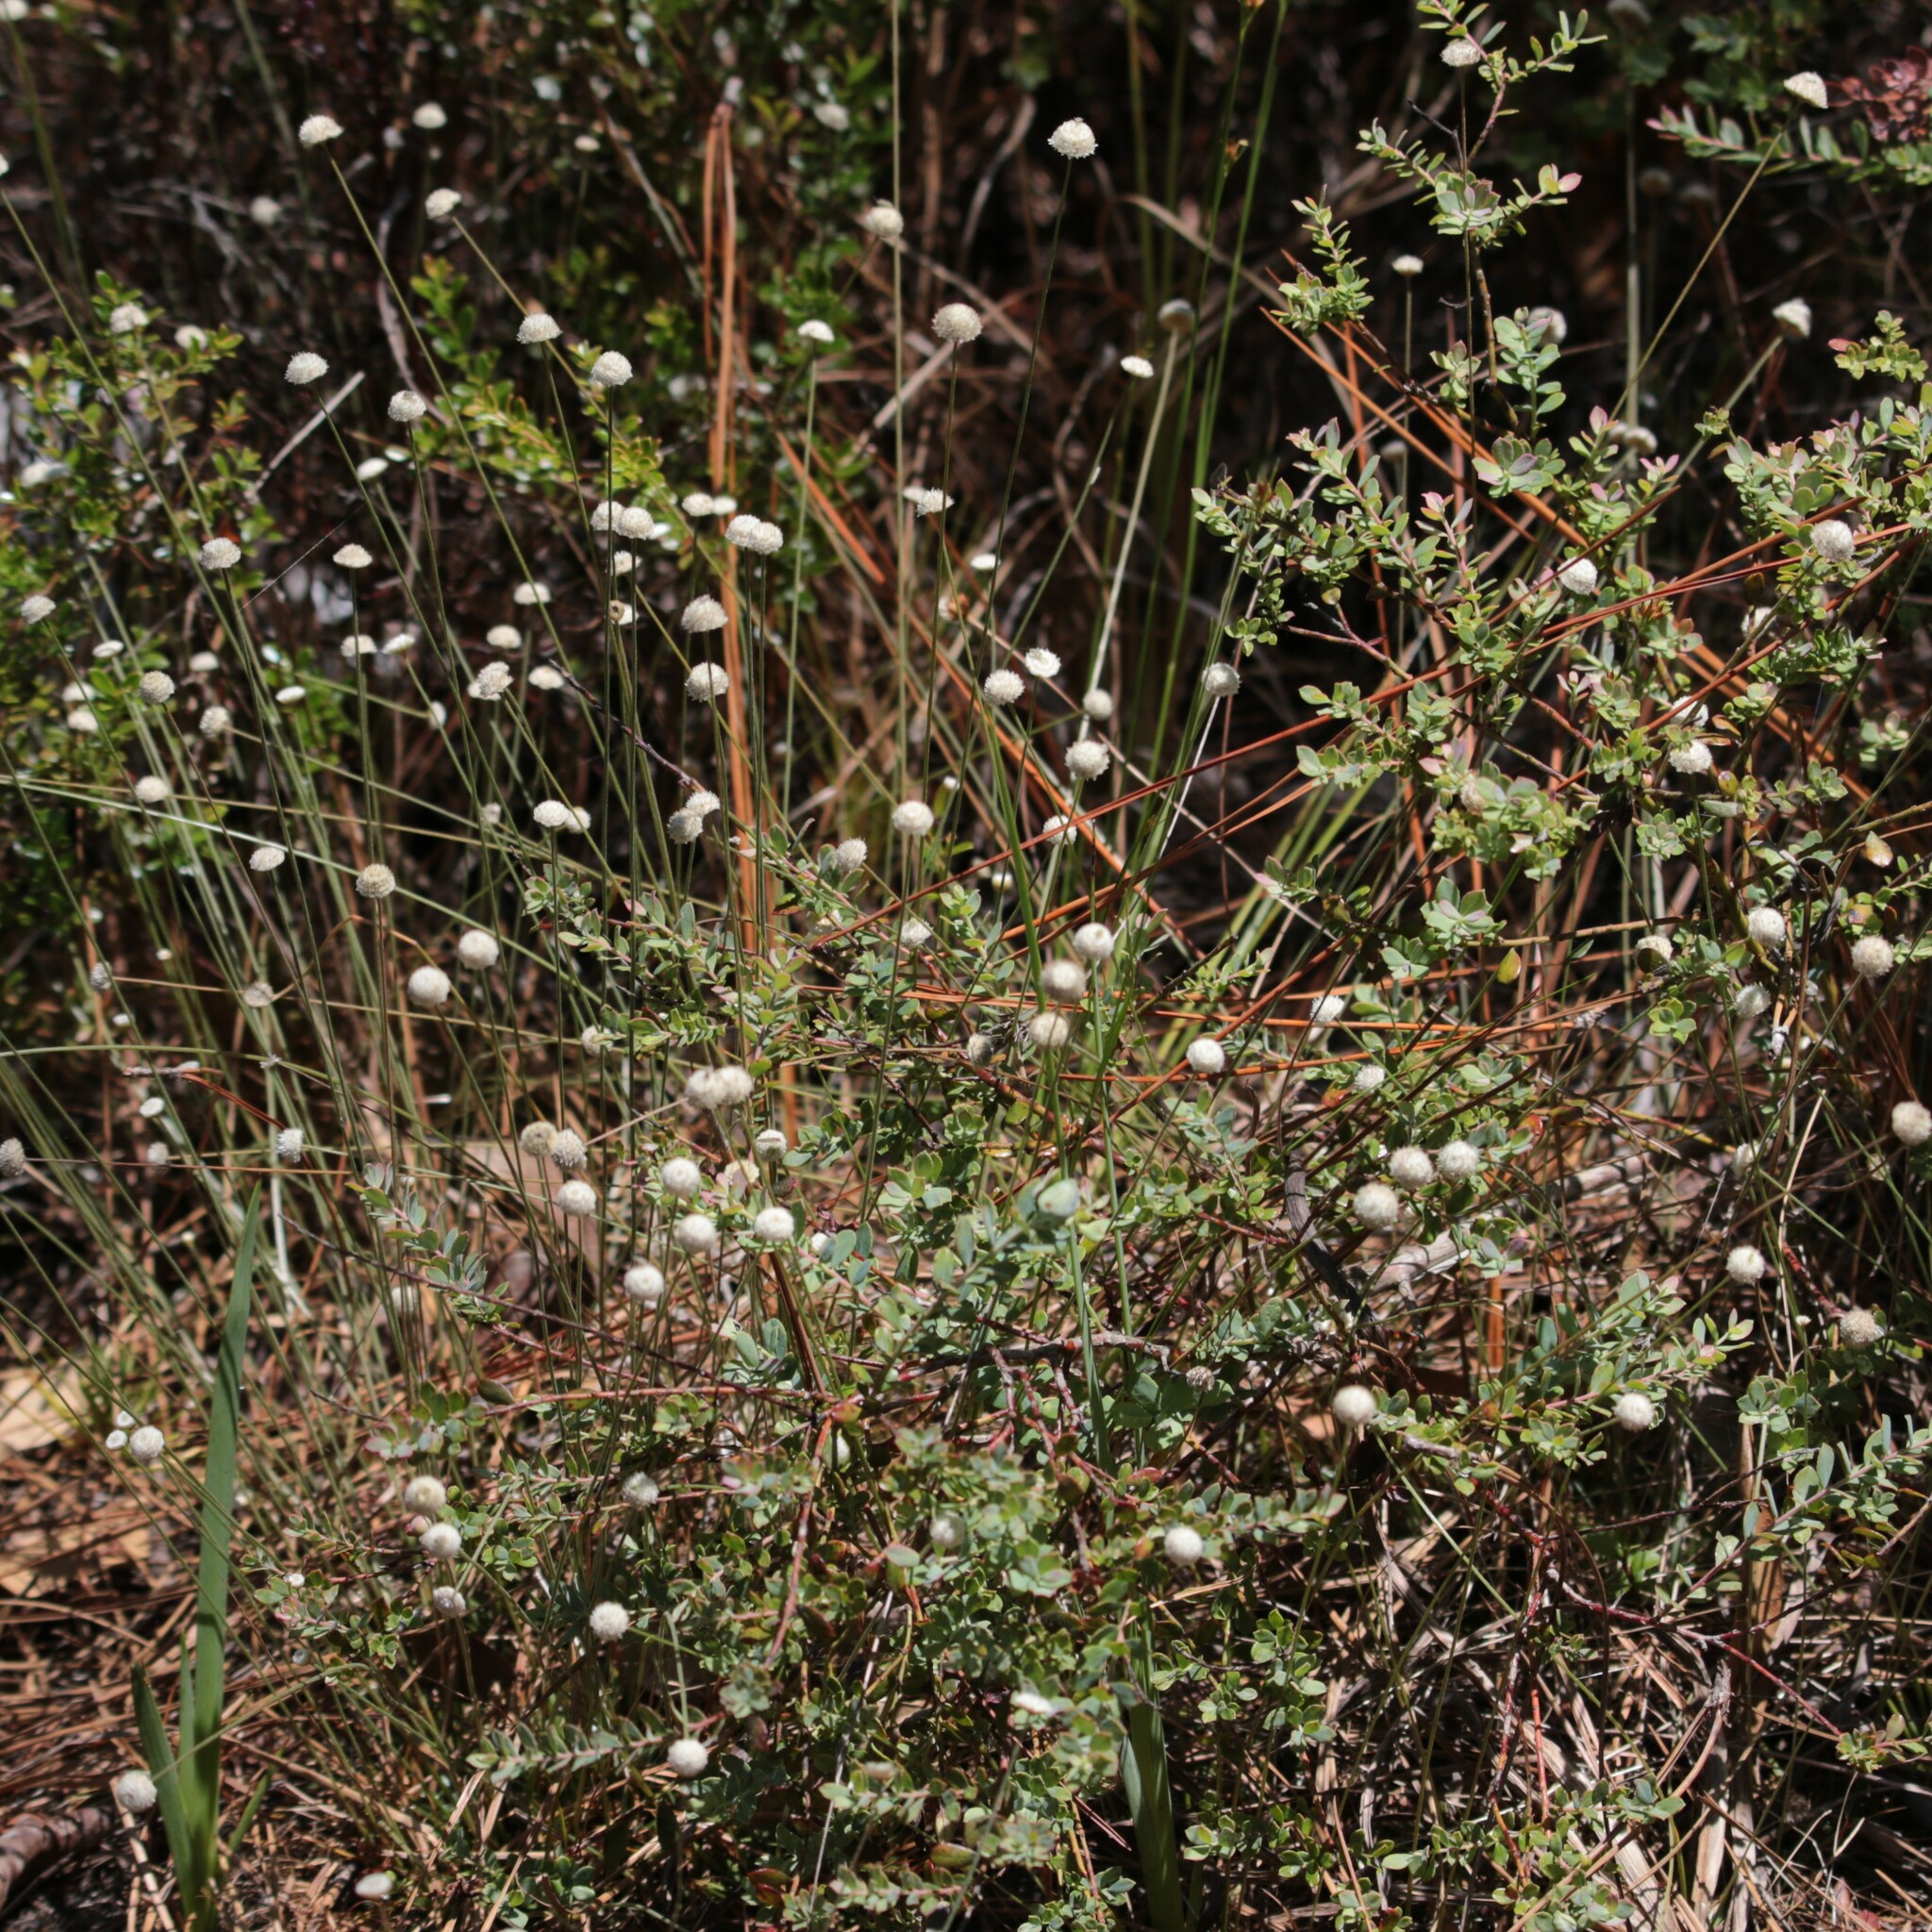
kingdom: Plantae
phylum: Tracheophyta
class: Liliopsida
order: Poales
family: Eriocaulaceae
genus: Syngonanthus
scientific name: Syngonanthus flavidulus
